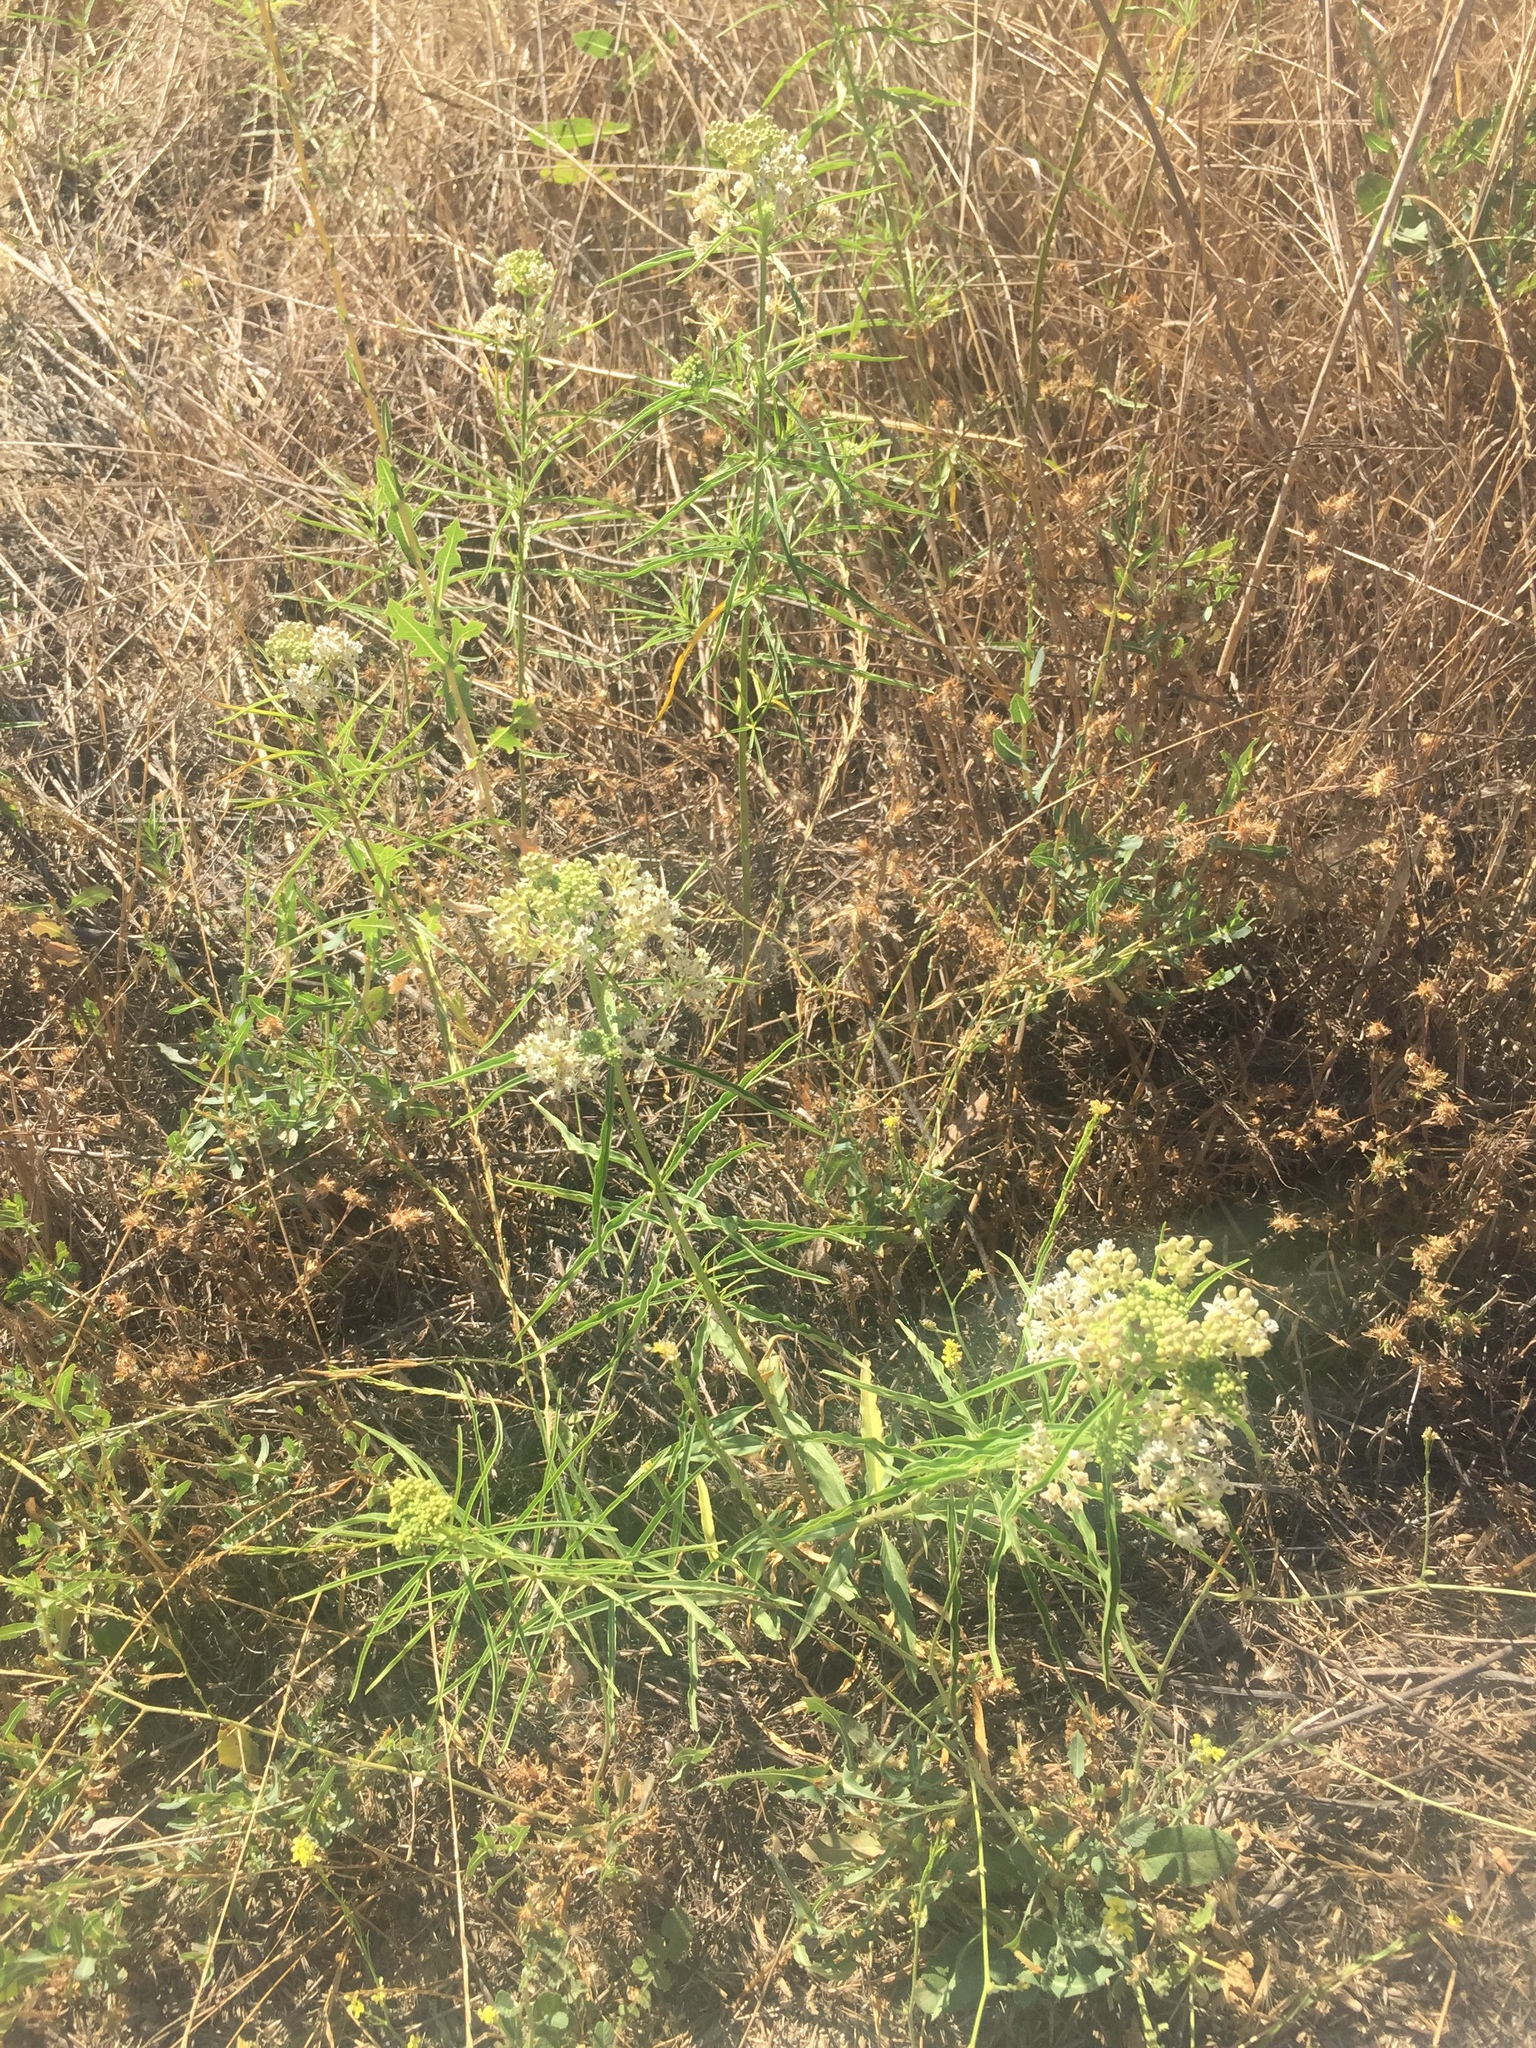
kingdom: Plantae
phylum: Tracheophyta
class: Magnoliopsida
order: Gentianales
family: Apocynaceae
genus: Asclepias
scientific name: Asclepias fascicularis
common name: Mexican milkweed
